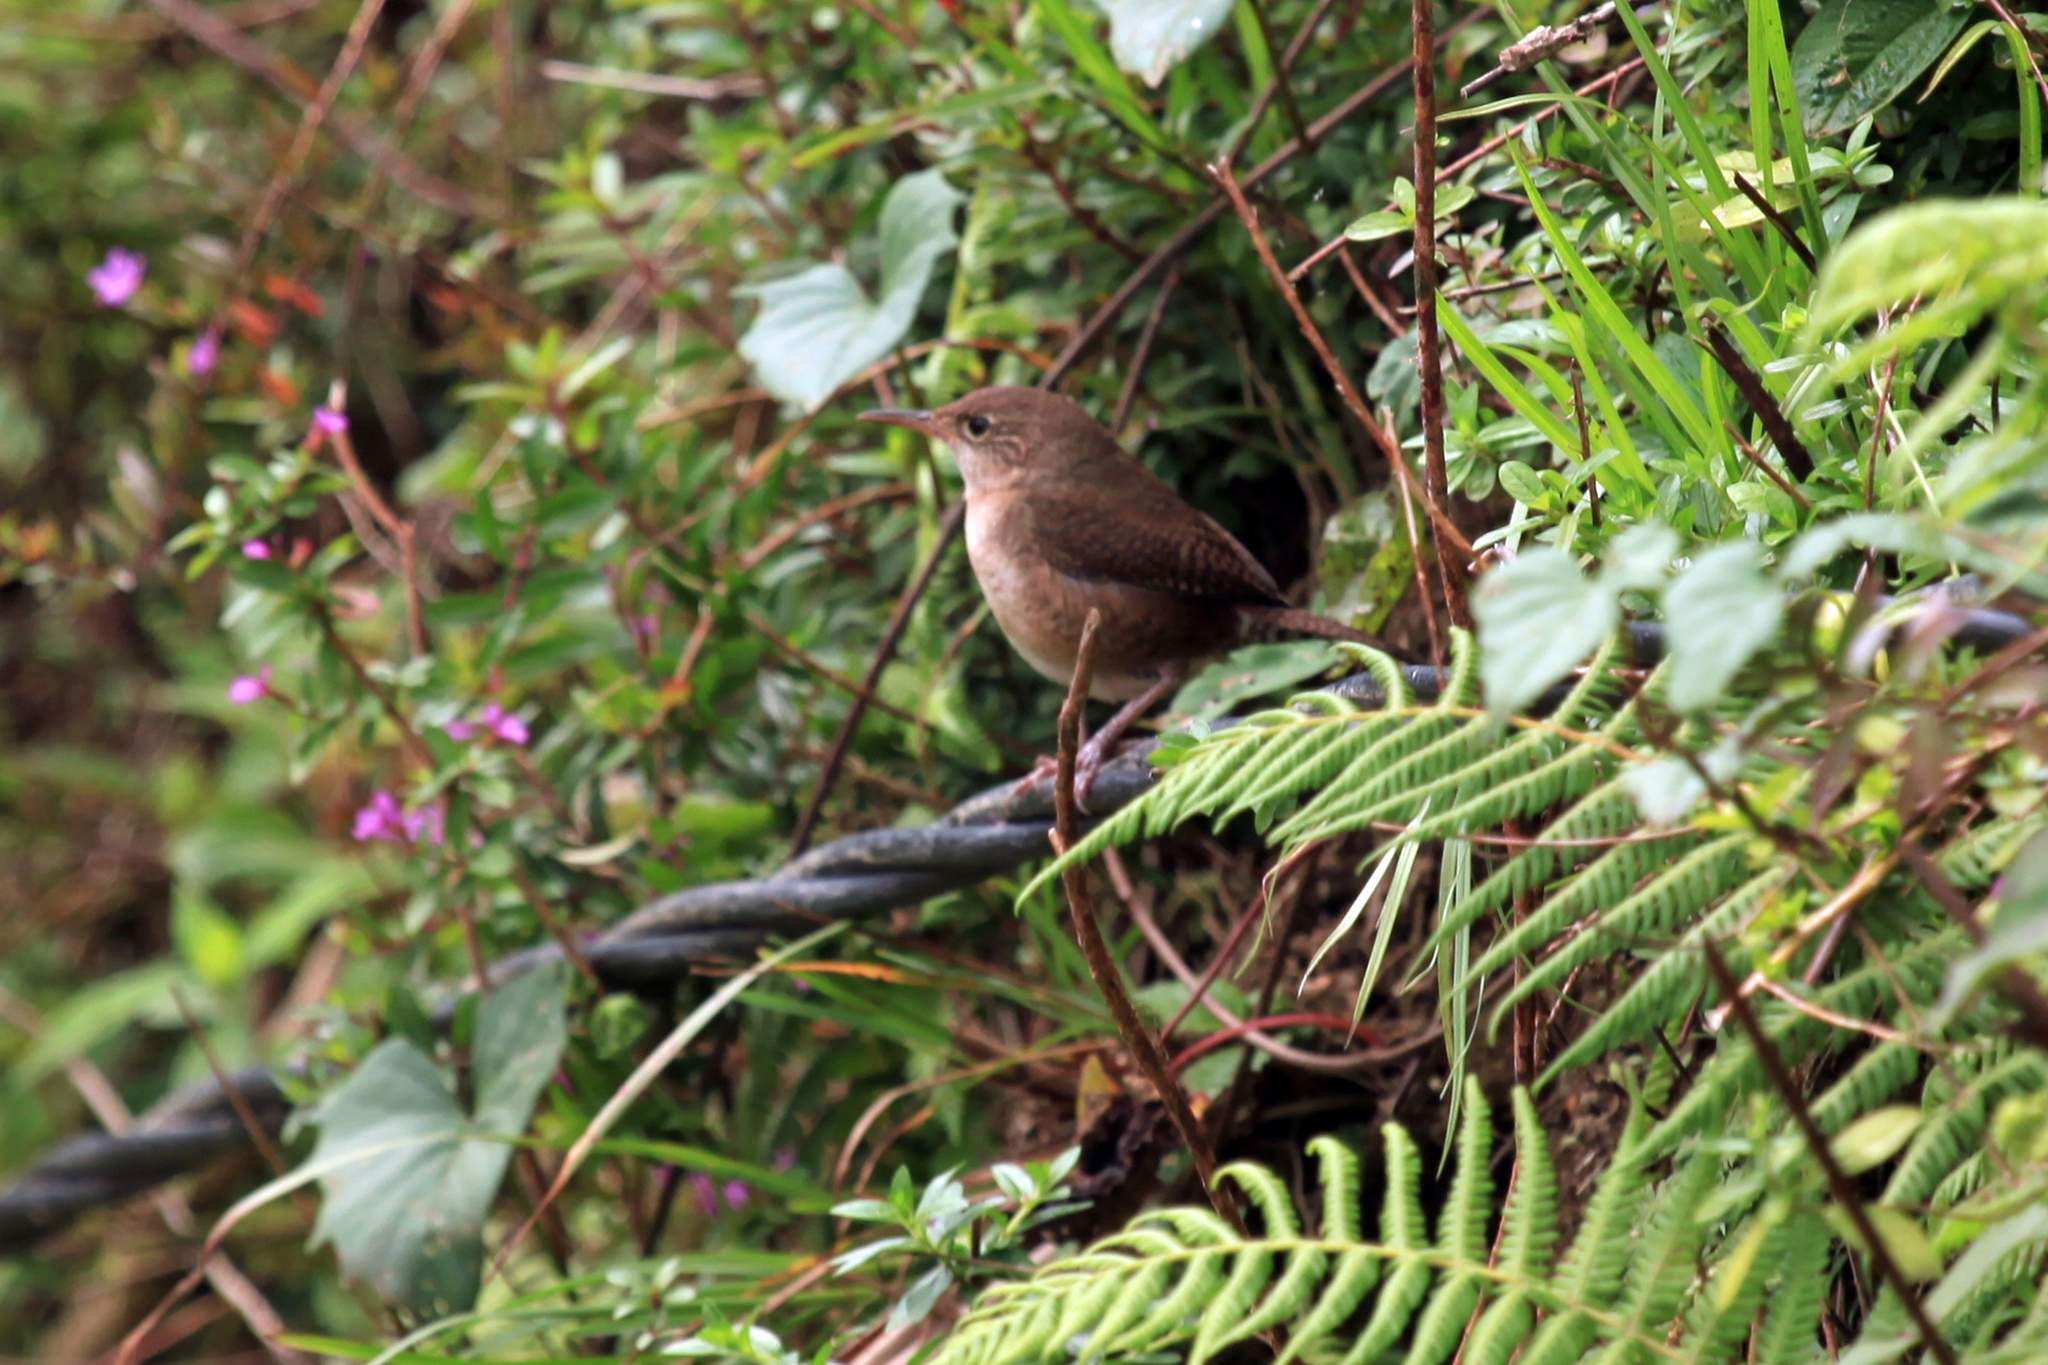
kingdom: Animalia
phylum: Chordata
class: Aves
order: Passeriformes
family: Troglodytidae
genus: Troglodytes
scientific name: Troglodytes aedon
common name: House wren
